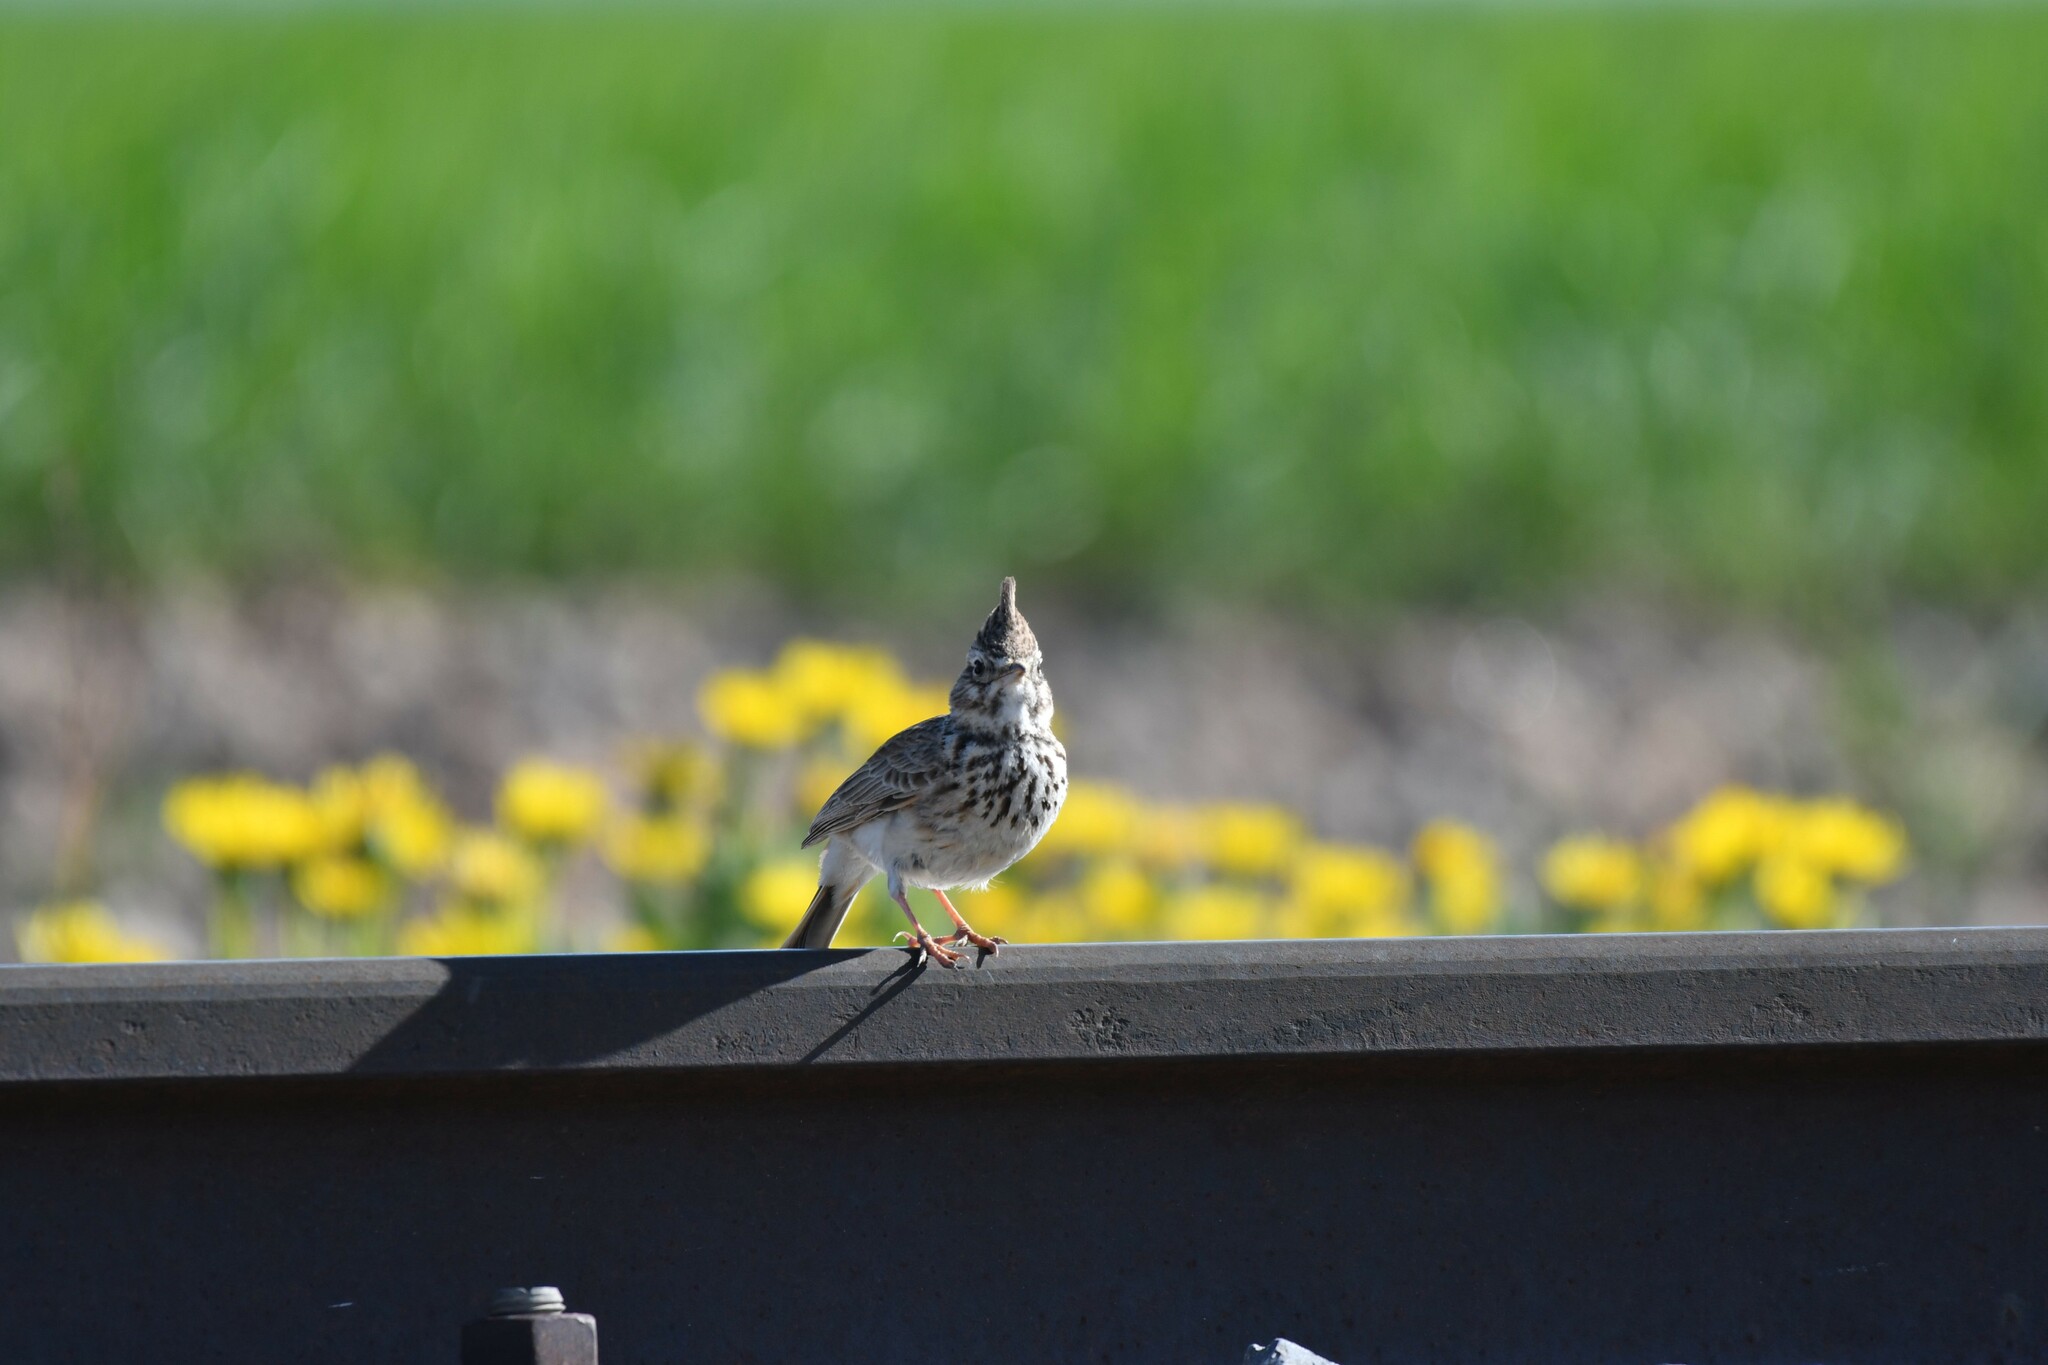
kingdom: Animalia
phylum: Chordata
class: Aves
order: Passeriformes
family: Alaudidae
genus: Galerida
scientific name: Galerida theklae
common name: Thekla lark
